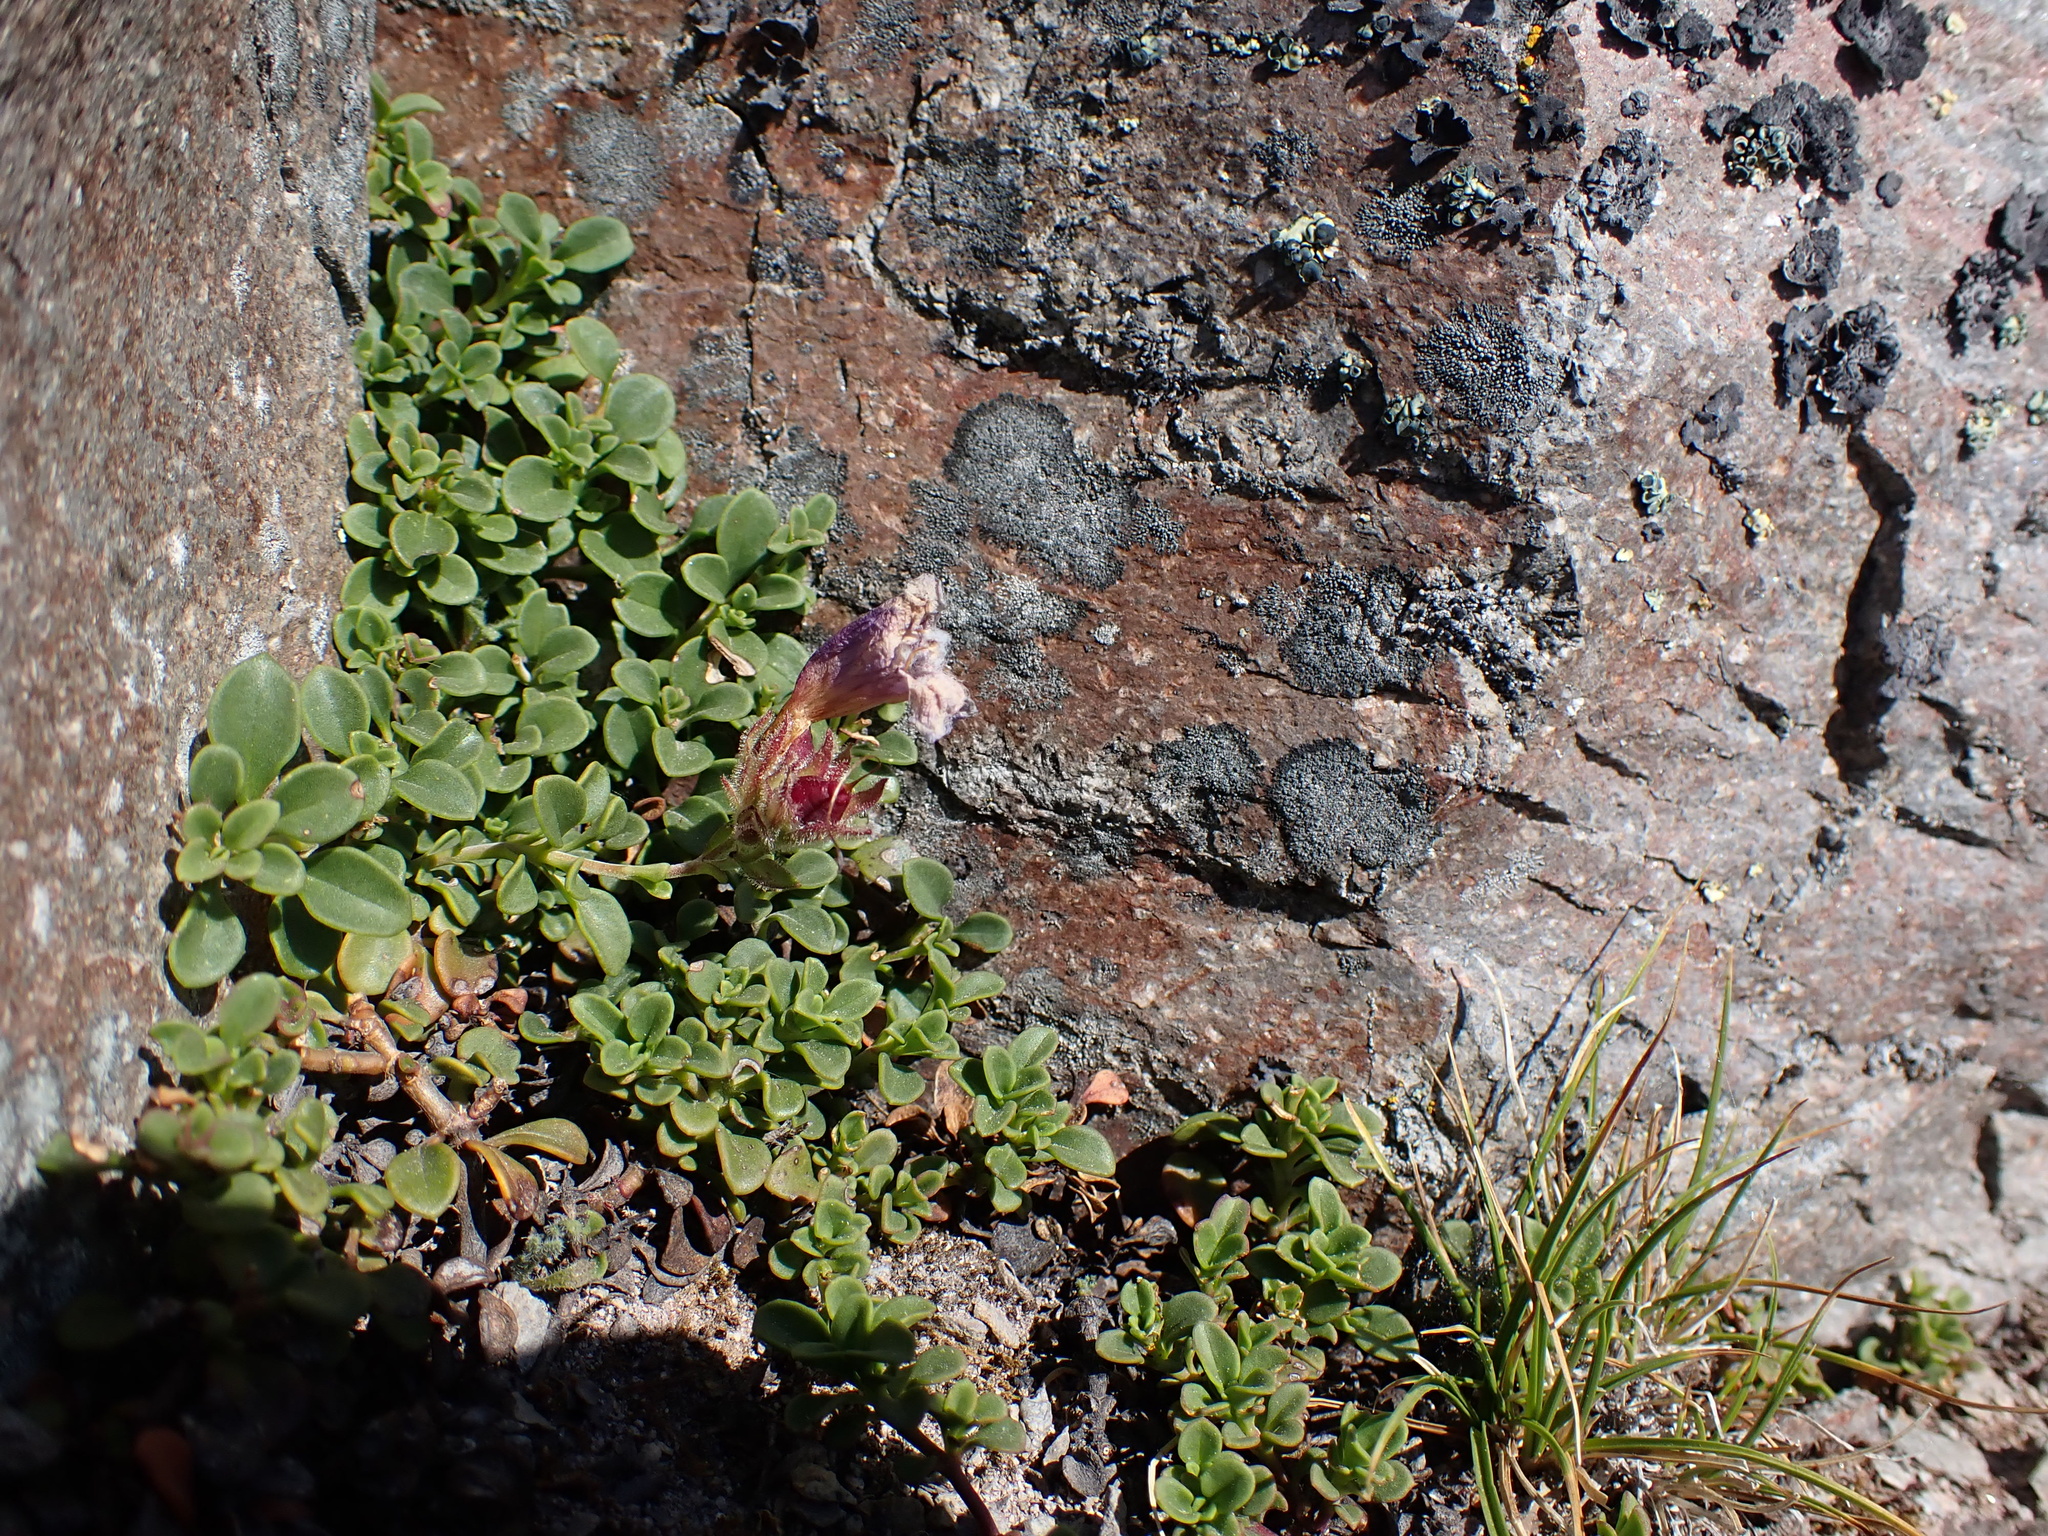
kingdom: Plantae
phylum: Tracheophyta
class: Magnoliopsida
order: Lamiales
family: Plantaginaceae
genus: Penstemon
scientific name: Penstemon davidsonii
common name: Davidson's penstemon
